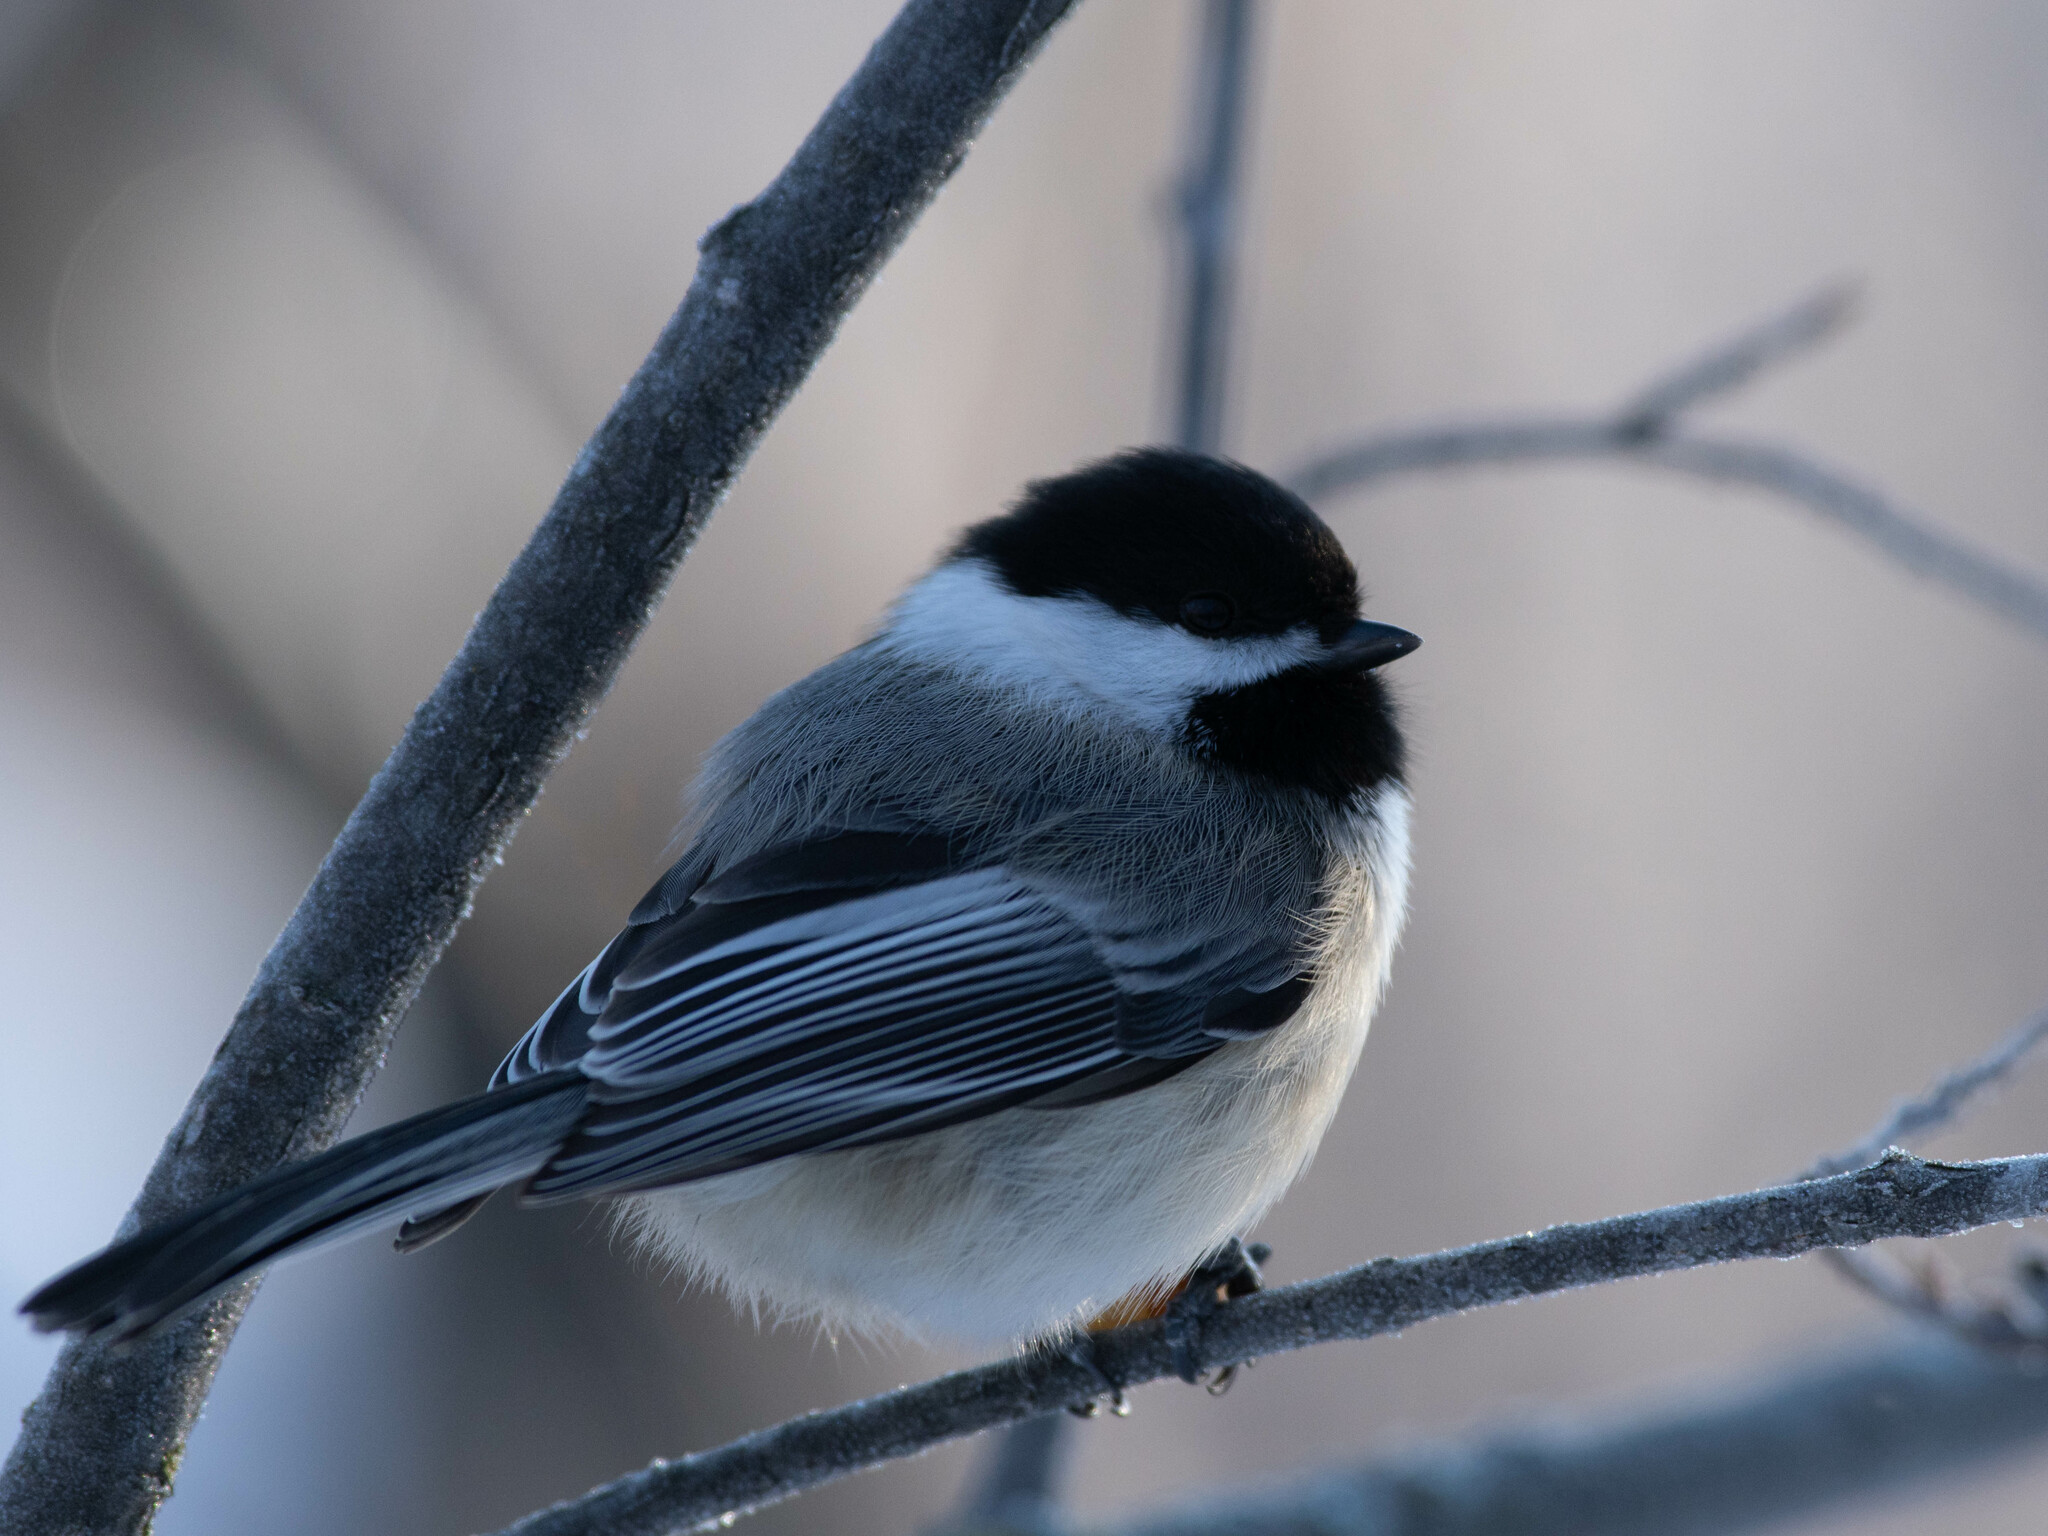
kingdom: Animalia
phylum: Chordata
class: Aves
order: Passeriformes
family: Paridae
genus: Poecile
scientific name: Poecile atricapillus
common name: Black-capped chickadee
